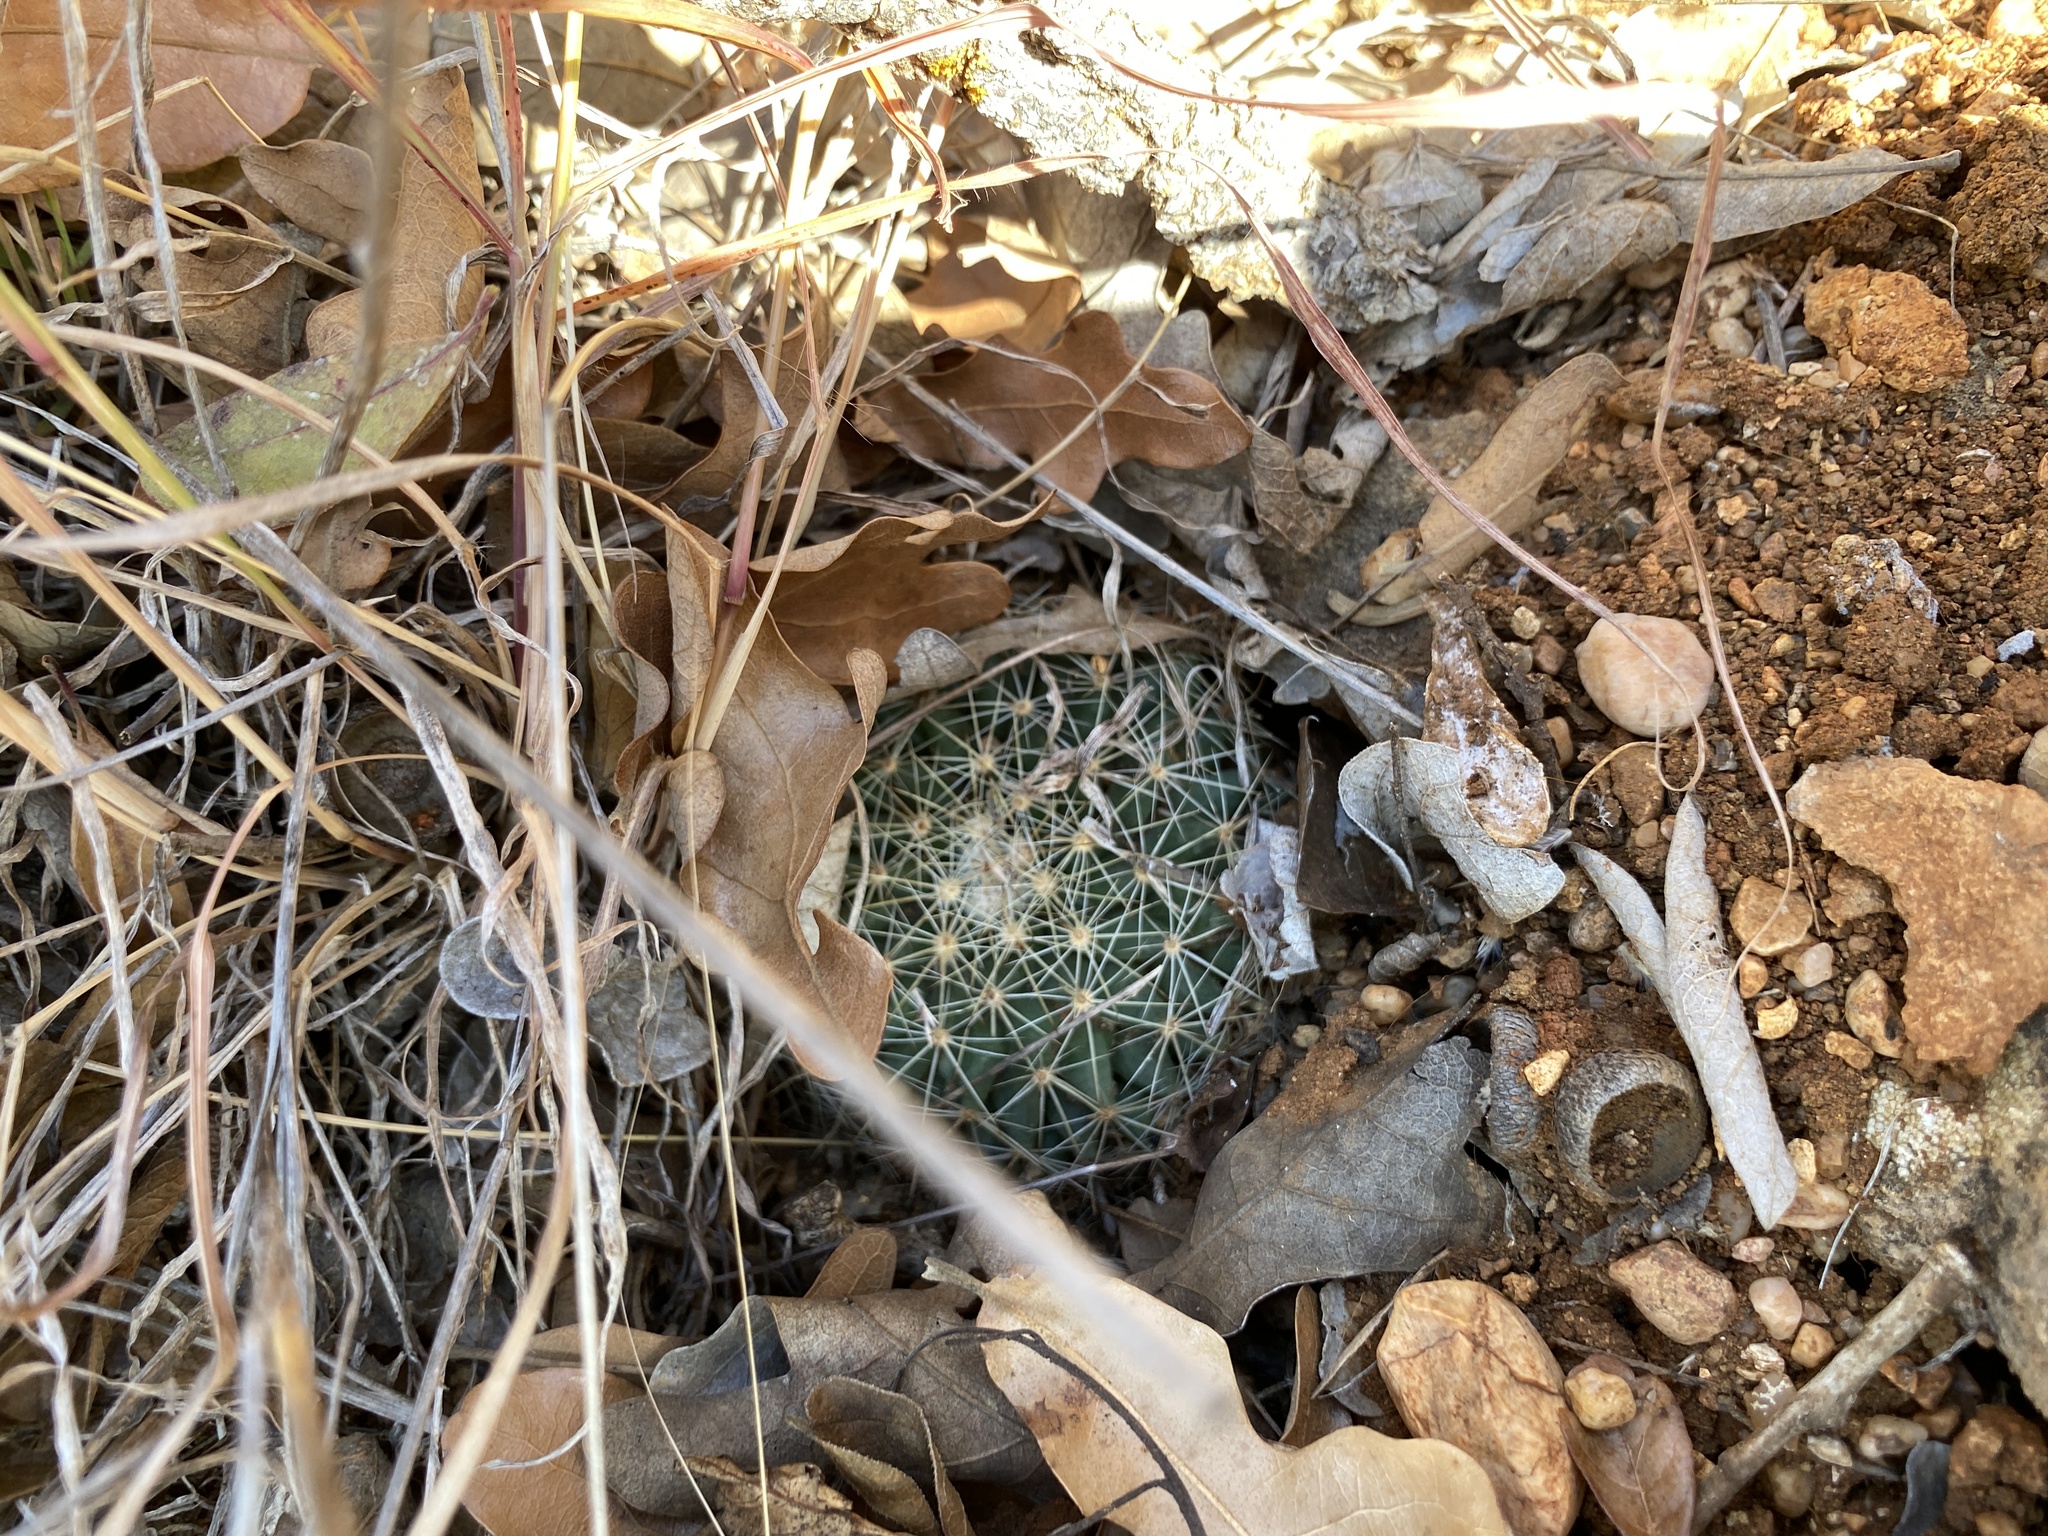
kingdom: Plantae
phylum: Tracheophyta
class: Magnoliopsida
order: Caryophyllales
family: Cactaceae
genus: Mammillaria
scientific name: Mammillaria heyderi
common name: Little nipple cactus
